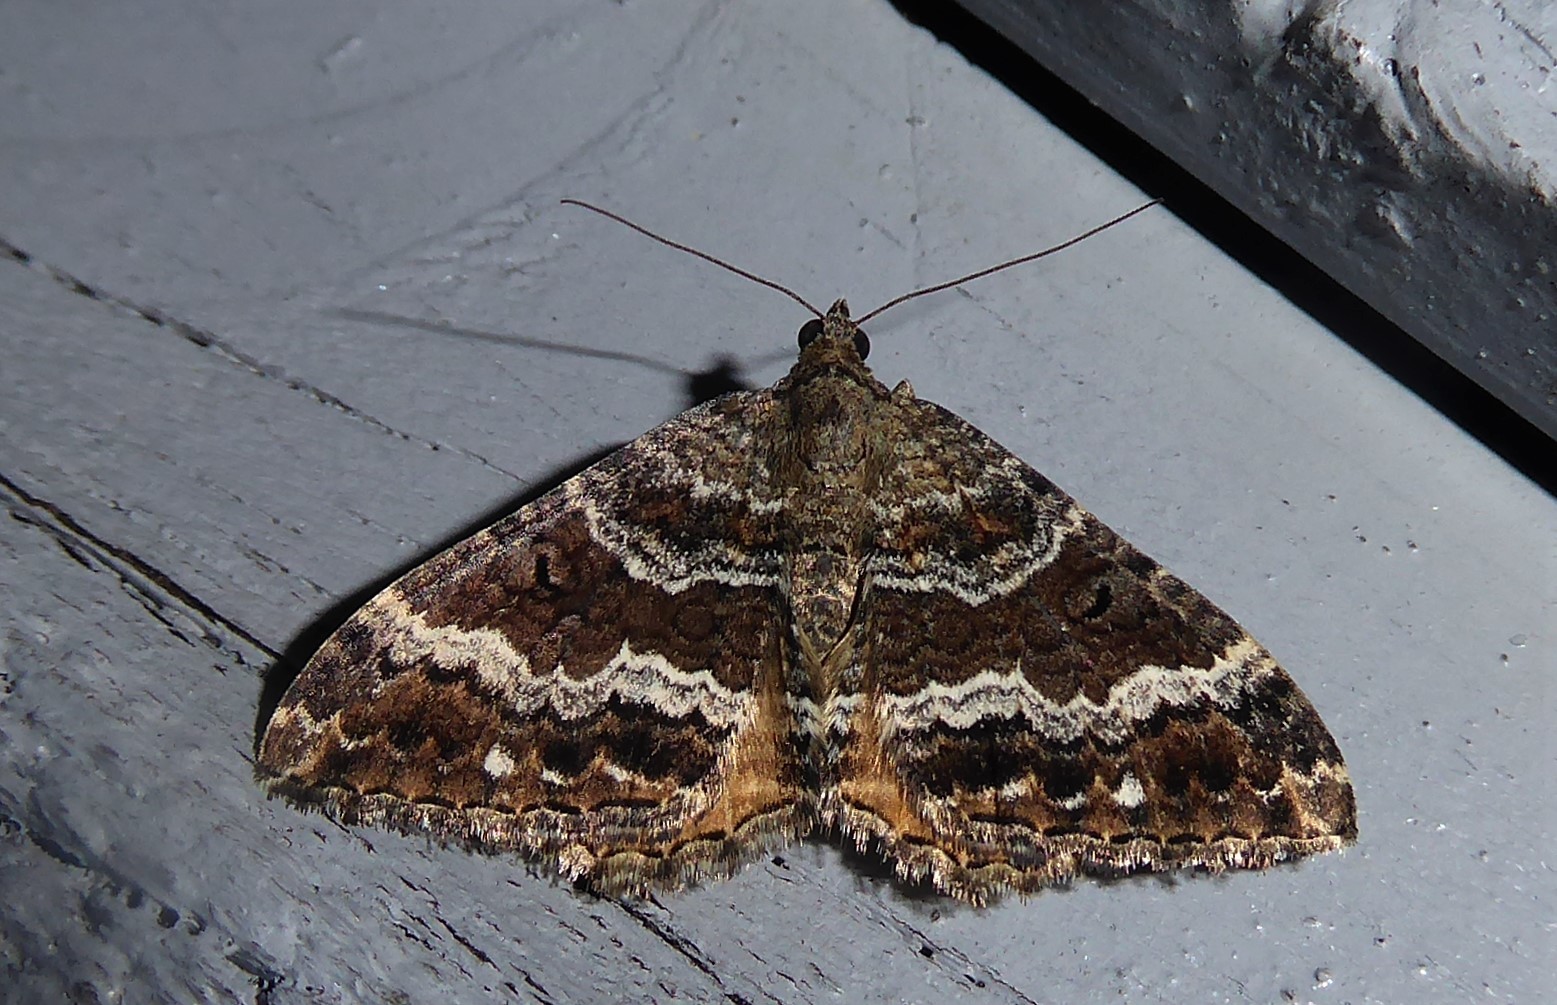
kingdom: Animalia
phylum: Arthropoda
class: Insecta
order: Lepidoptera
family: Geometridae
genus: Hydriomena
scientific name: Hydriomena deltoidata
